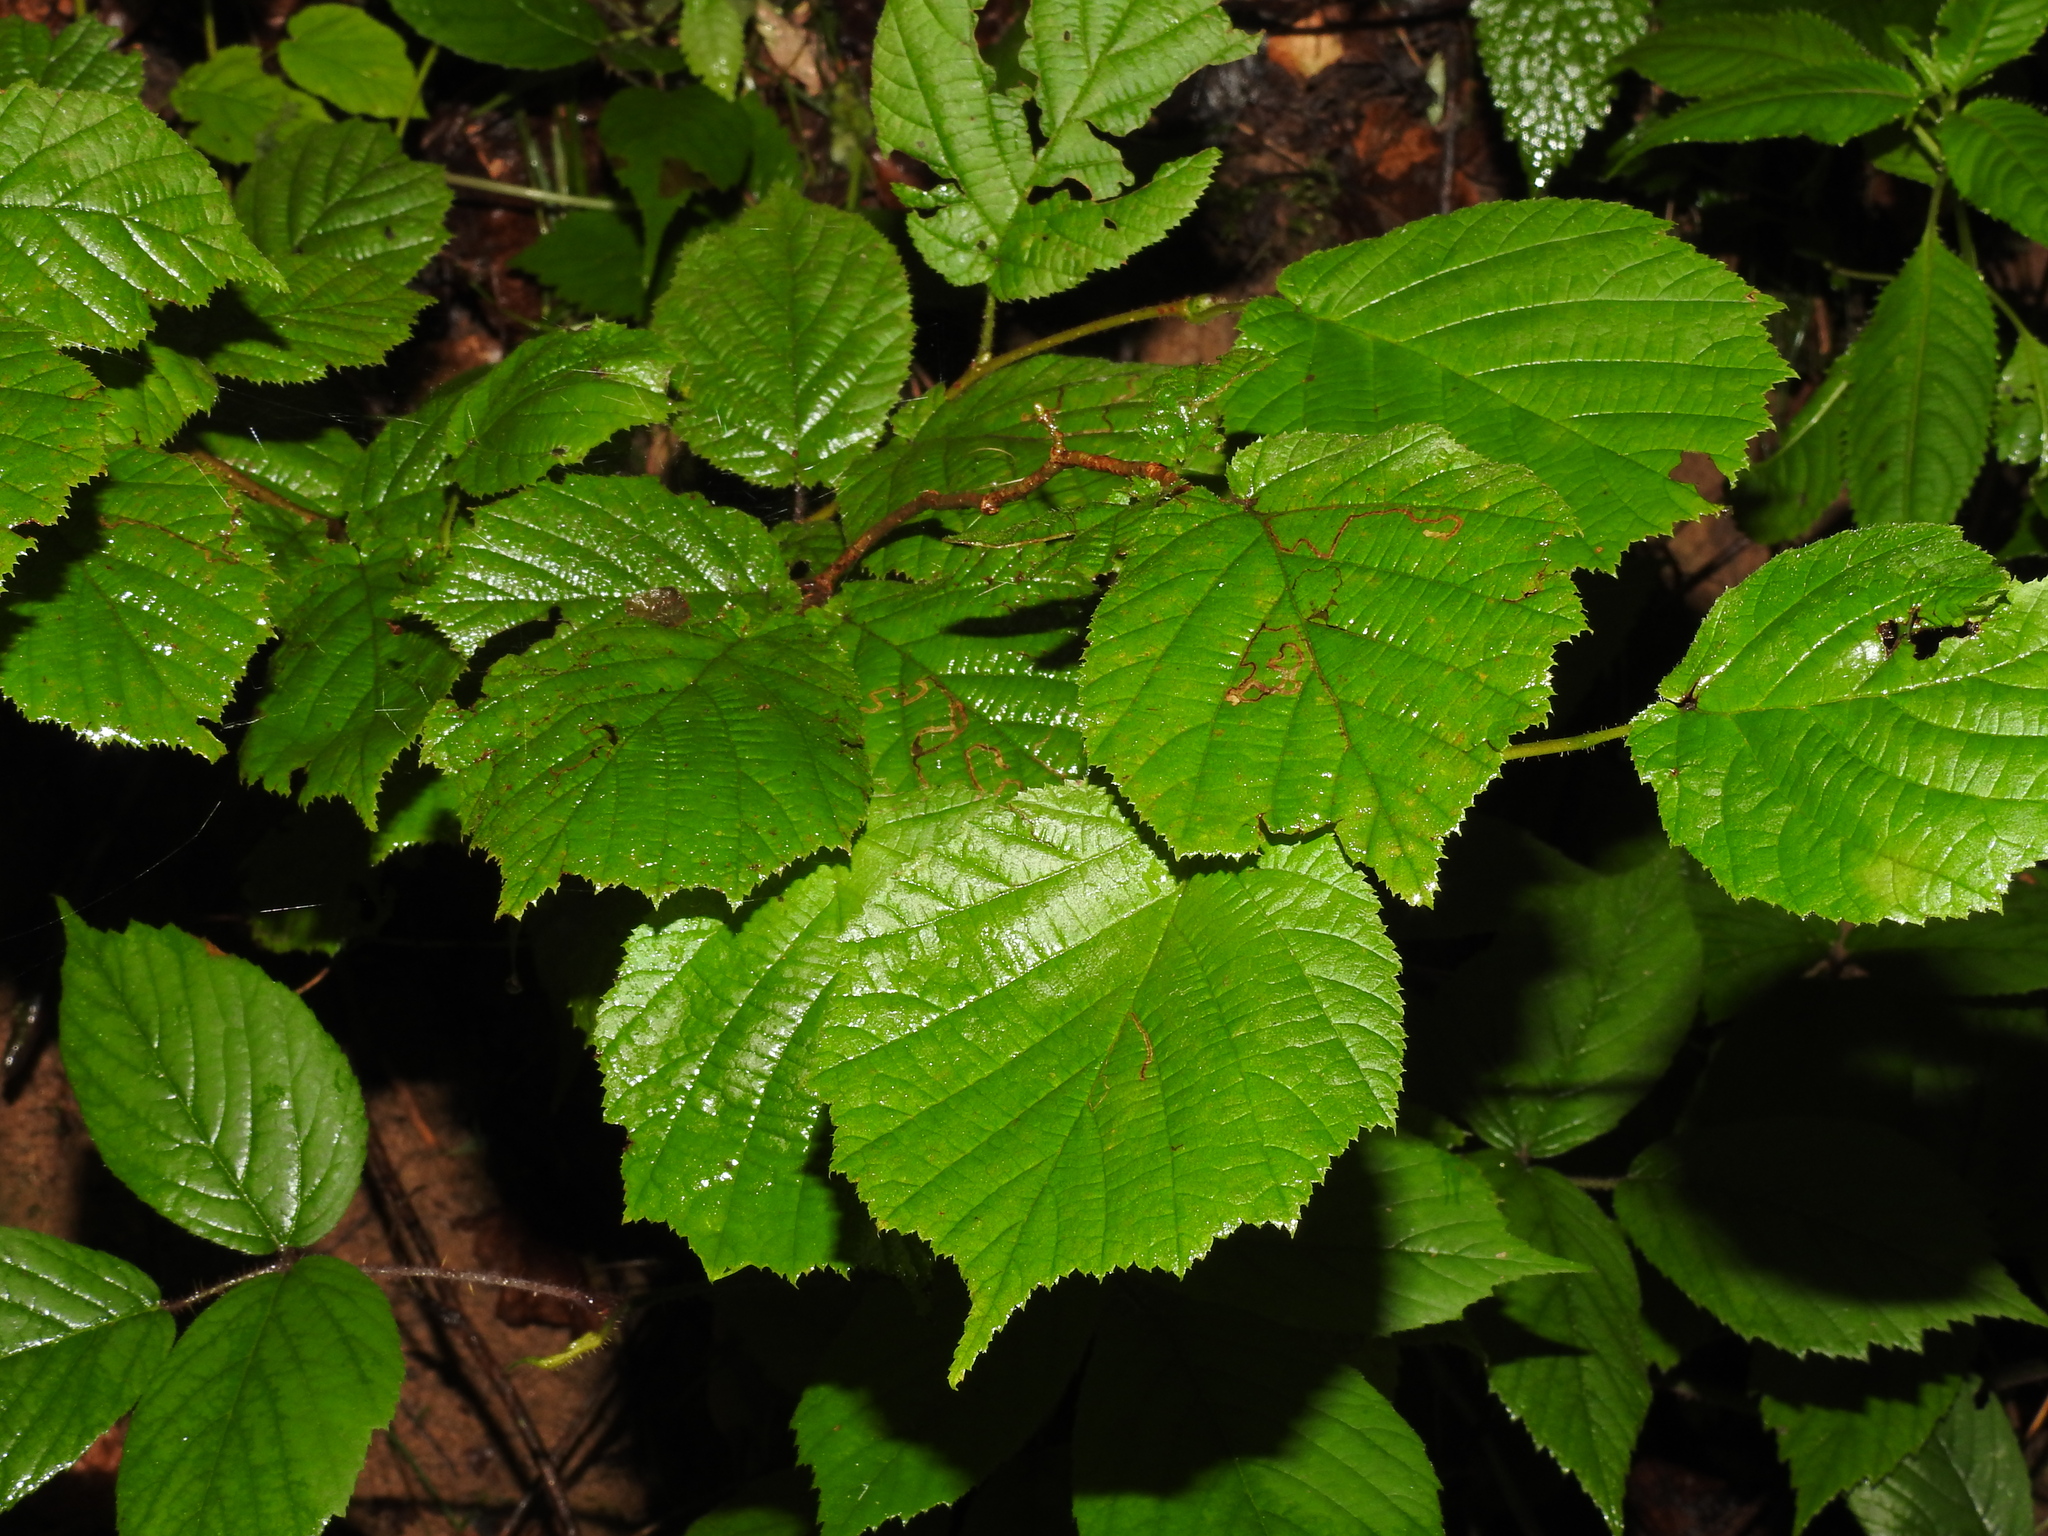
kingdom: Plantae
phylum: Tracheophyta
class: Magnoliopsida
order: Fagales
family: Betulaceae
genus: Corylus
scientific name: Corylus avellana
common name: European hazel
